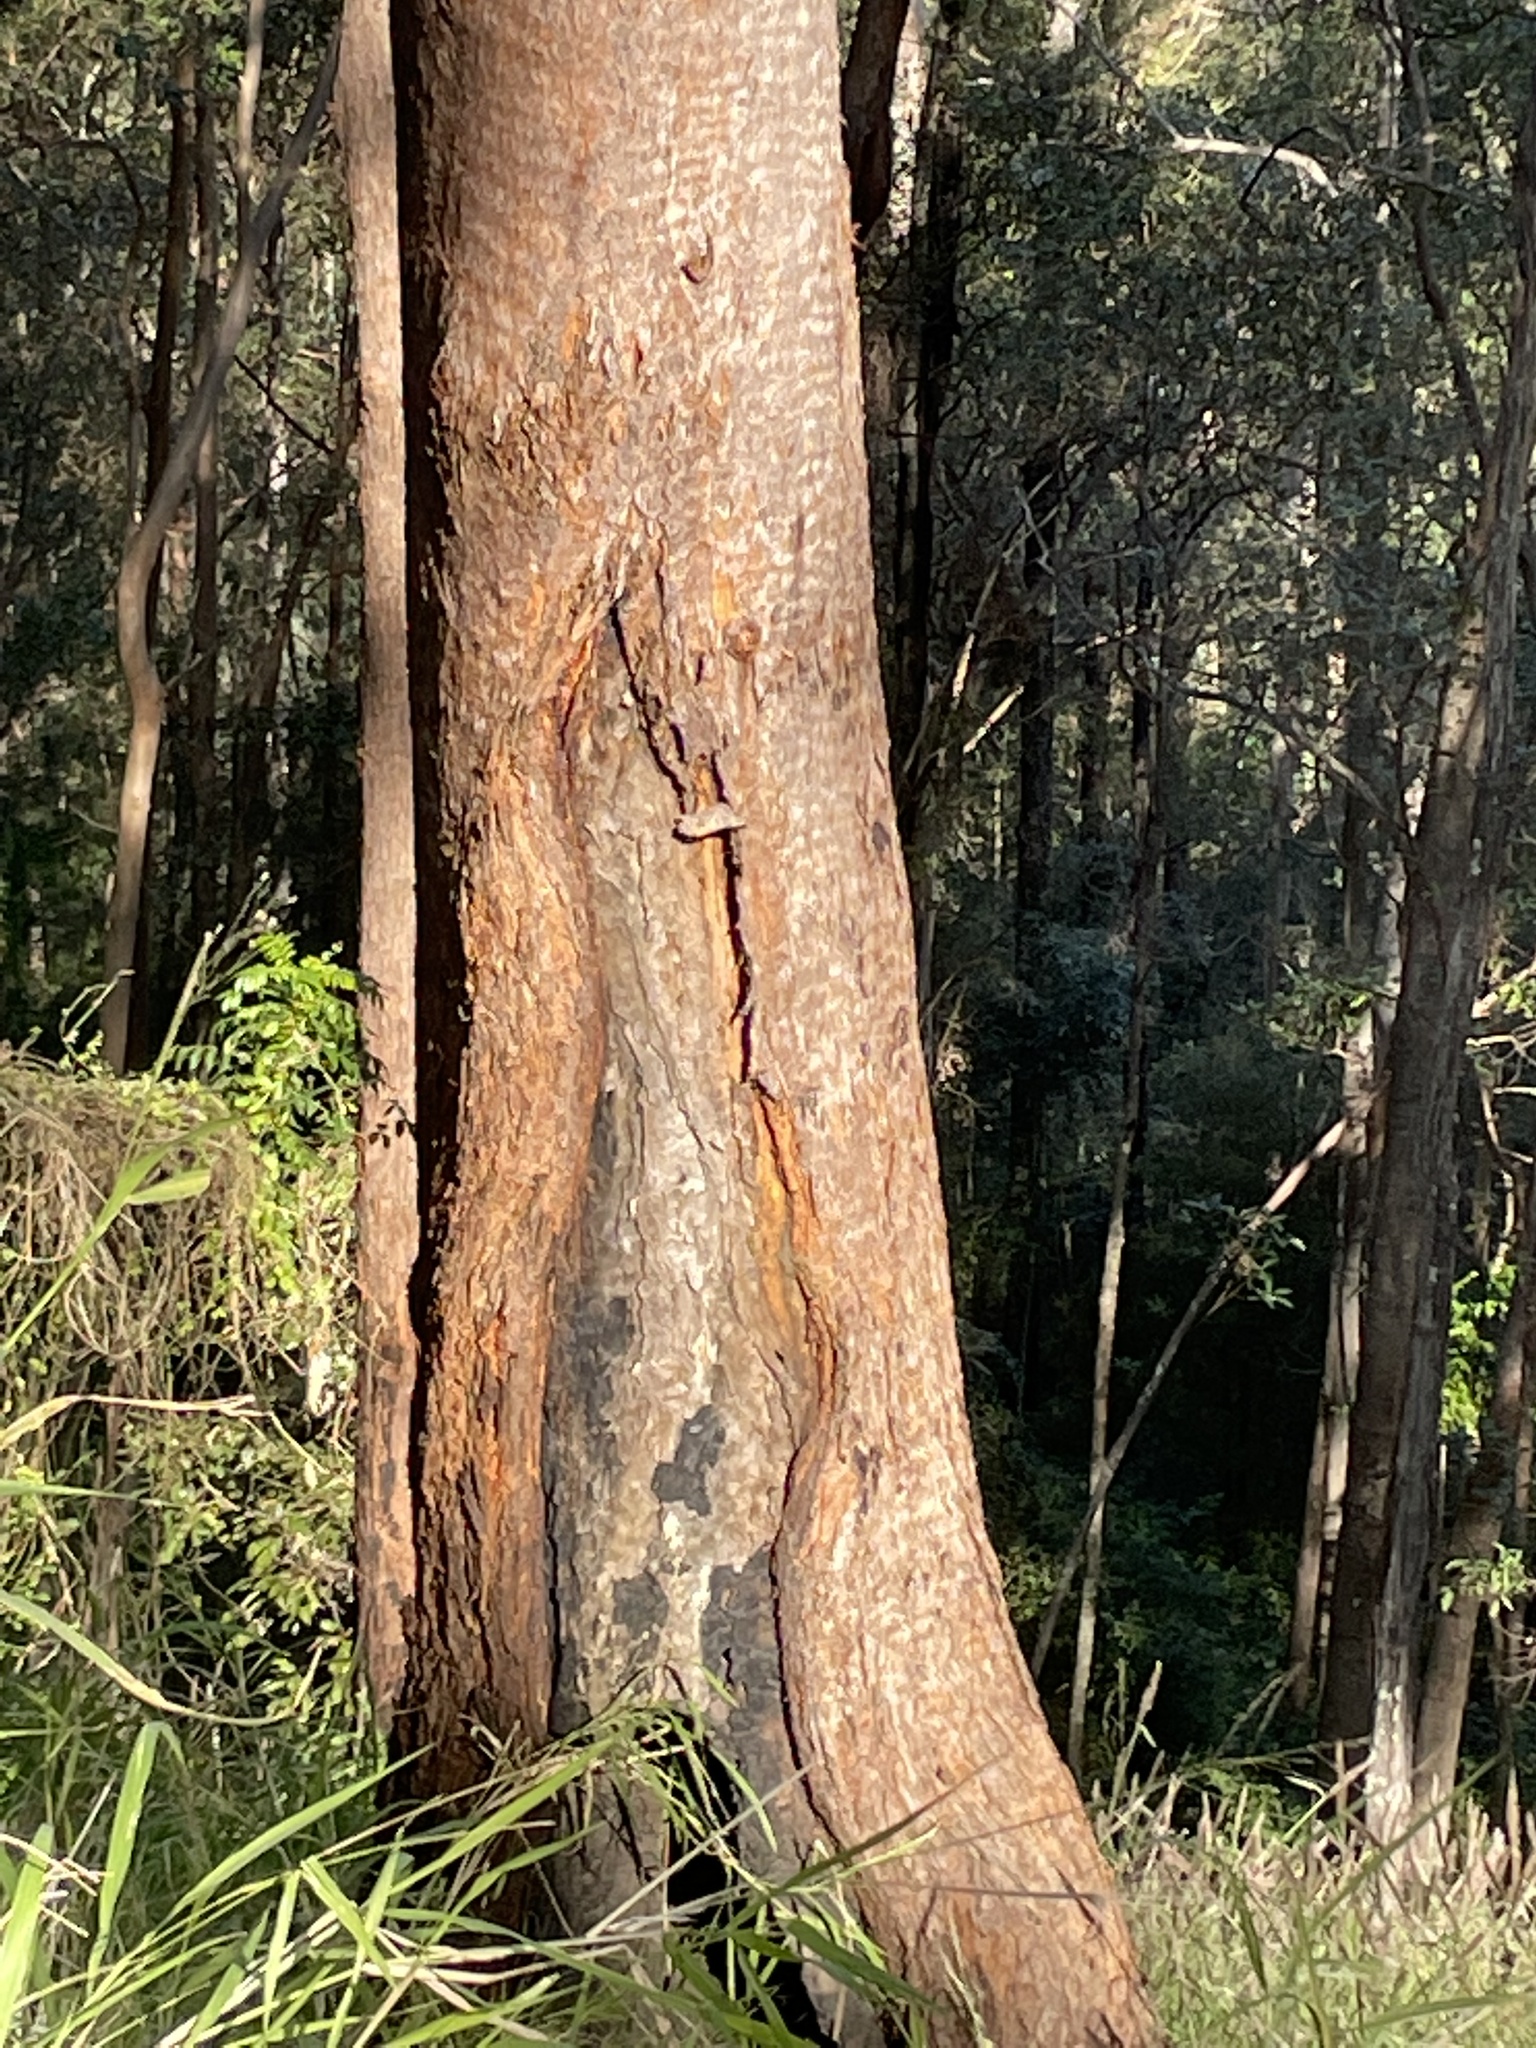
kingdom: Plantae
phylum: Tracheophyta
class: Magnoliopsida
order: Myrtales
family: Myrtaceae
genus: Eucalyptus
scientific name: Eucalyptus microcorys
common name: Tallowwood
